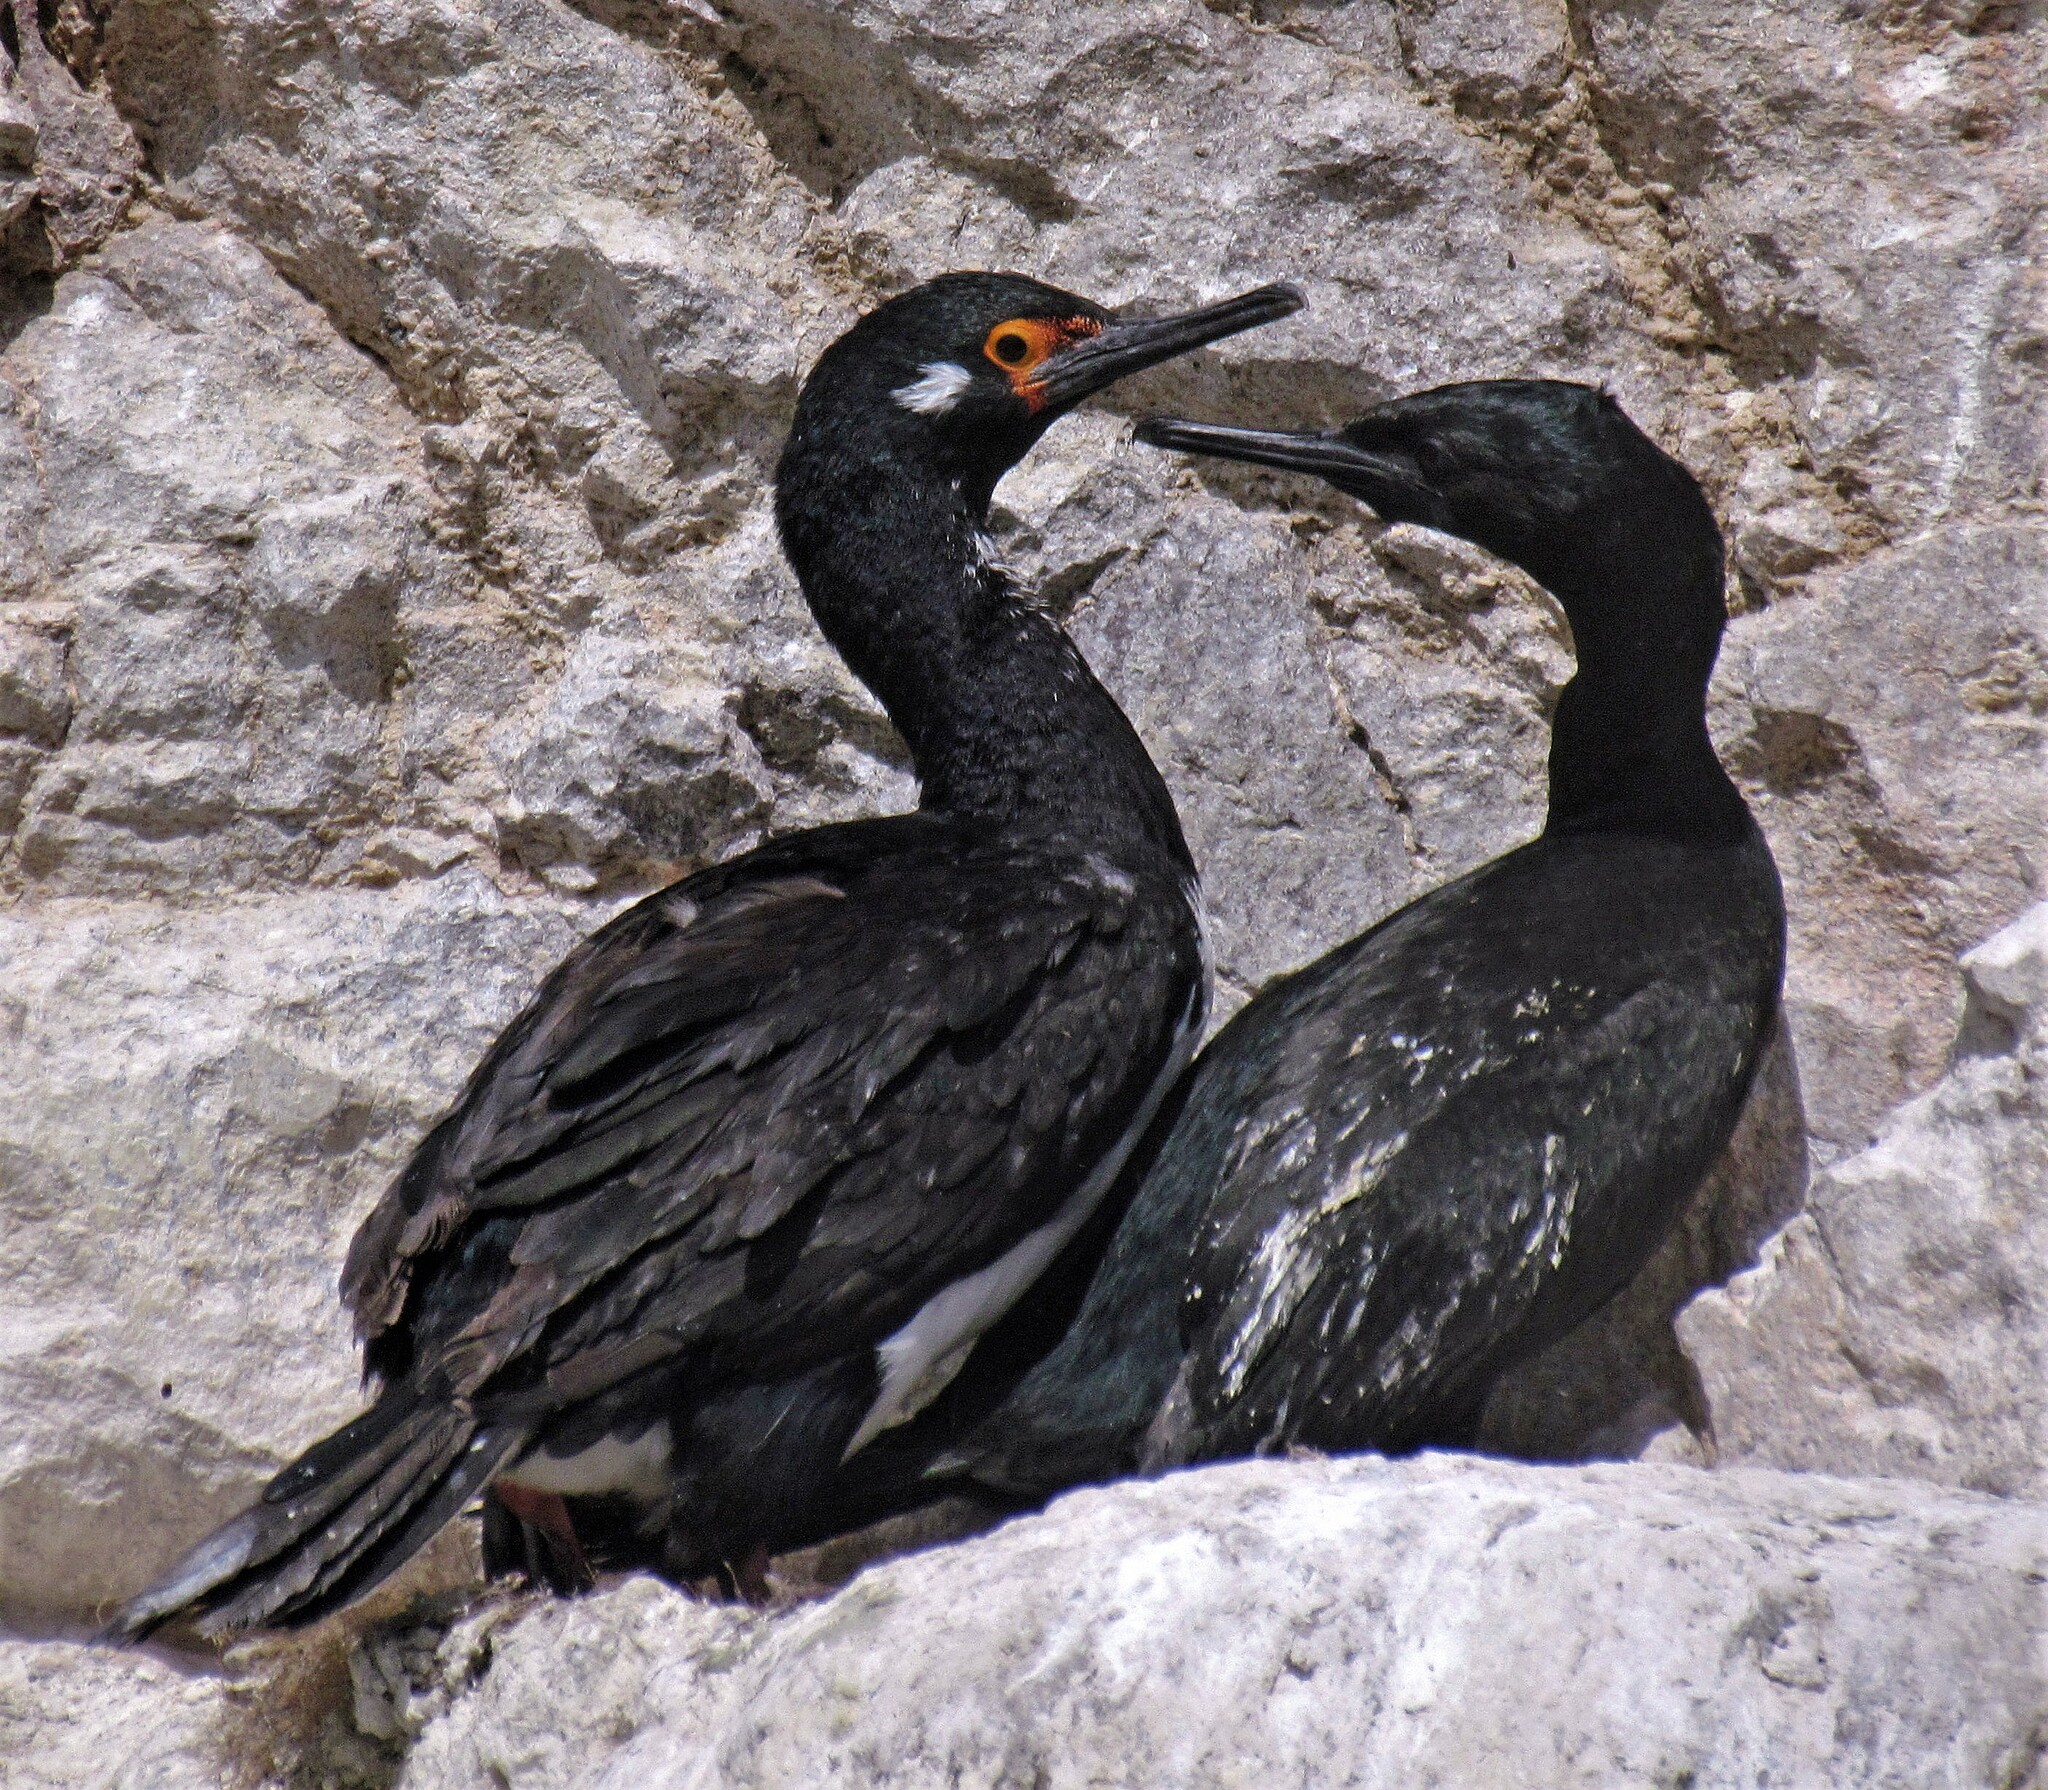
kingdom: Animalia
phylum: Chordata
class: Aves
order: Suliformes
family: Phalacrocoracidae
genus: Phalacrocorax
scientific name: Phalacrocorax magellanicus
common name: Rock shag
